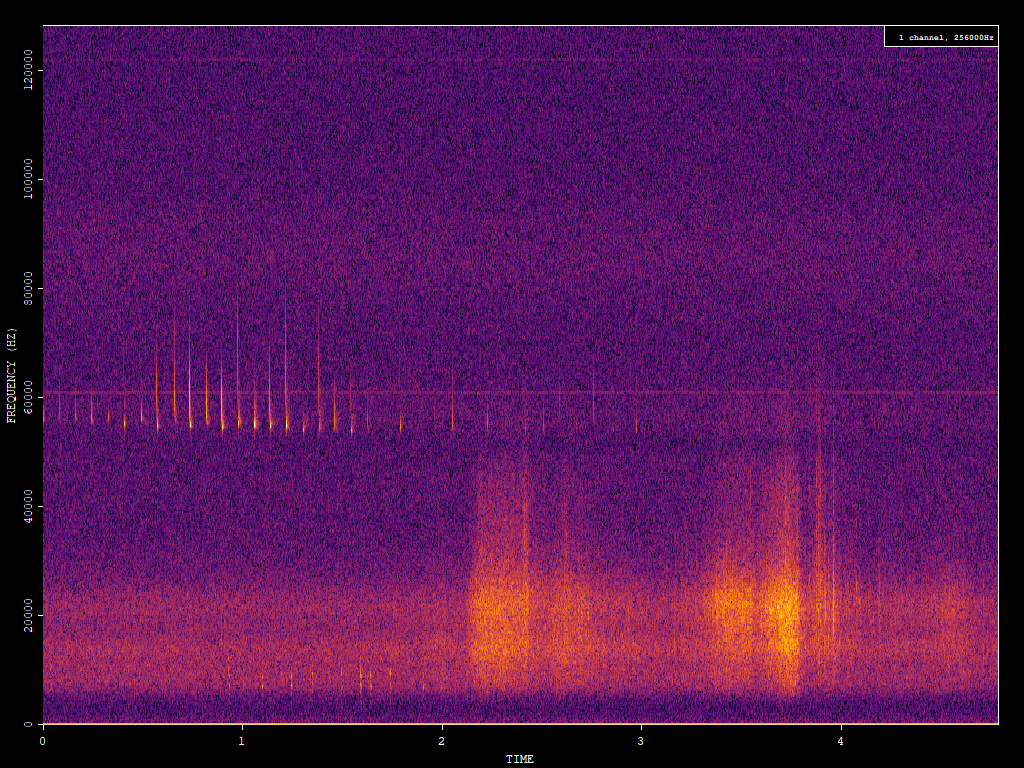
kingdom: Animalia
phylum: Chordata
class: Mammalia
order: Chiroptera
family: Vespertilionidae
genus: Pipistrellus
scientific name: Pipistrellus pygmaeus
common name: Soprano pipistrelle
